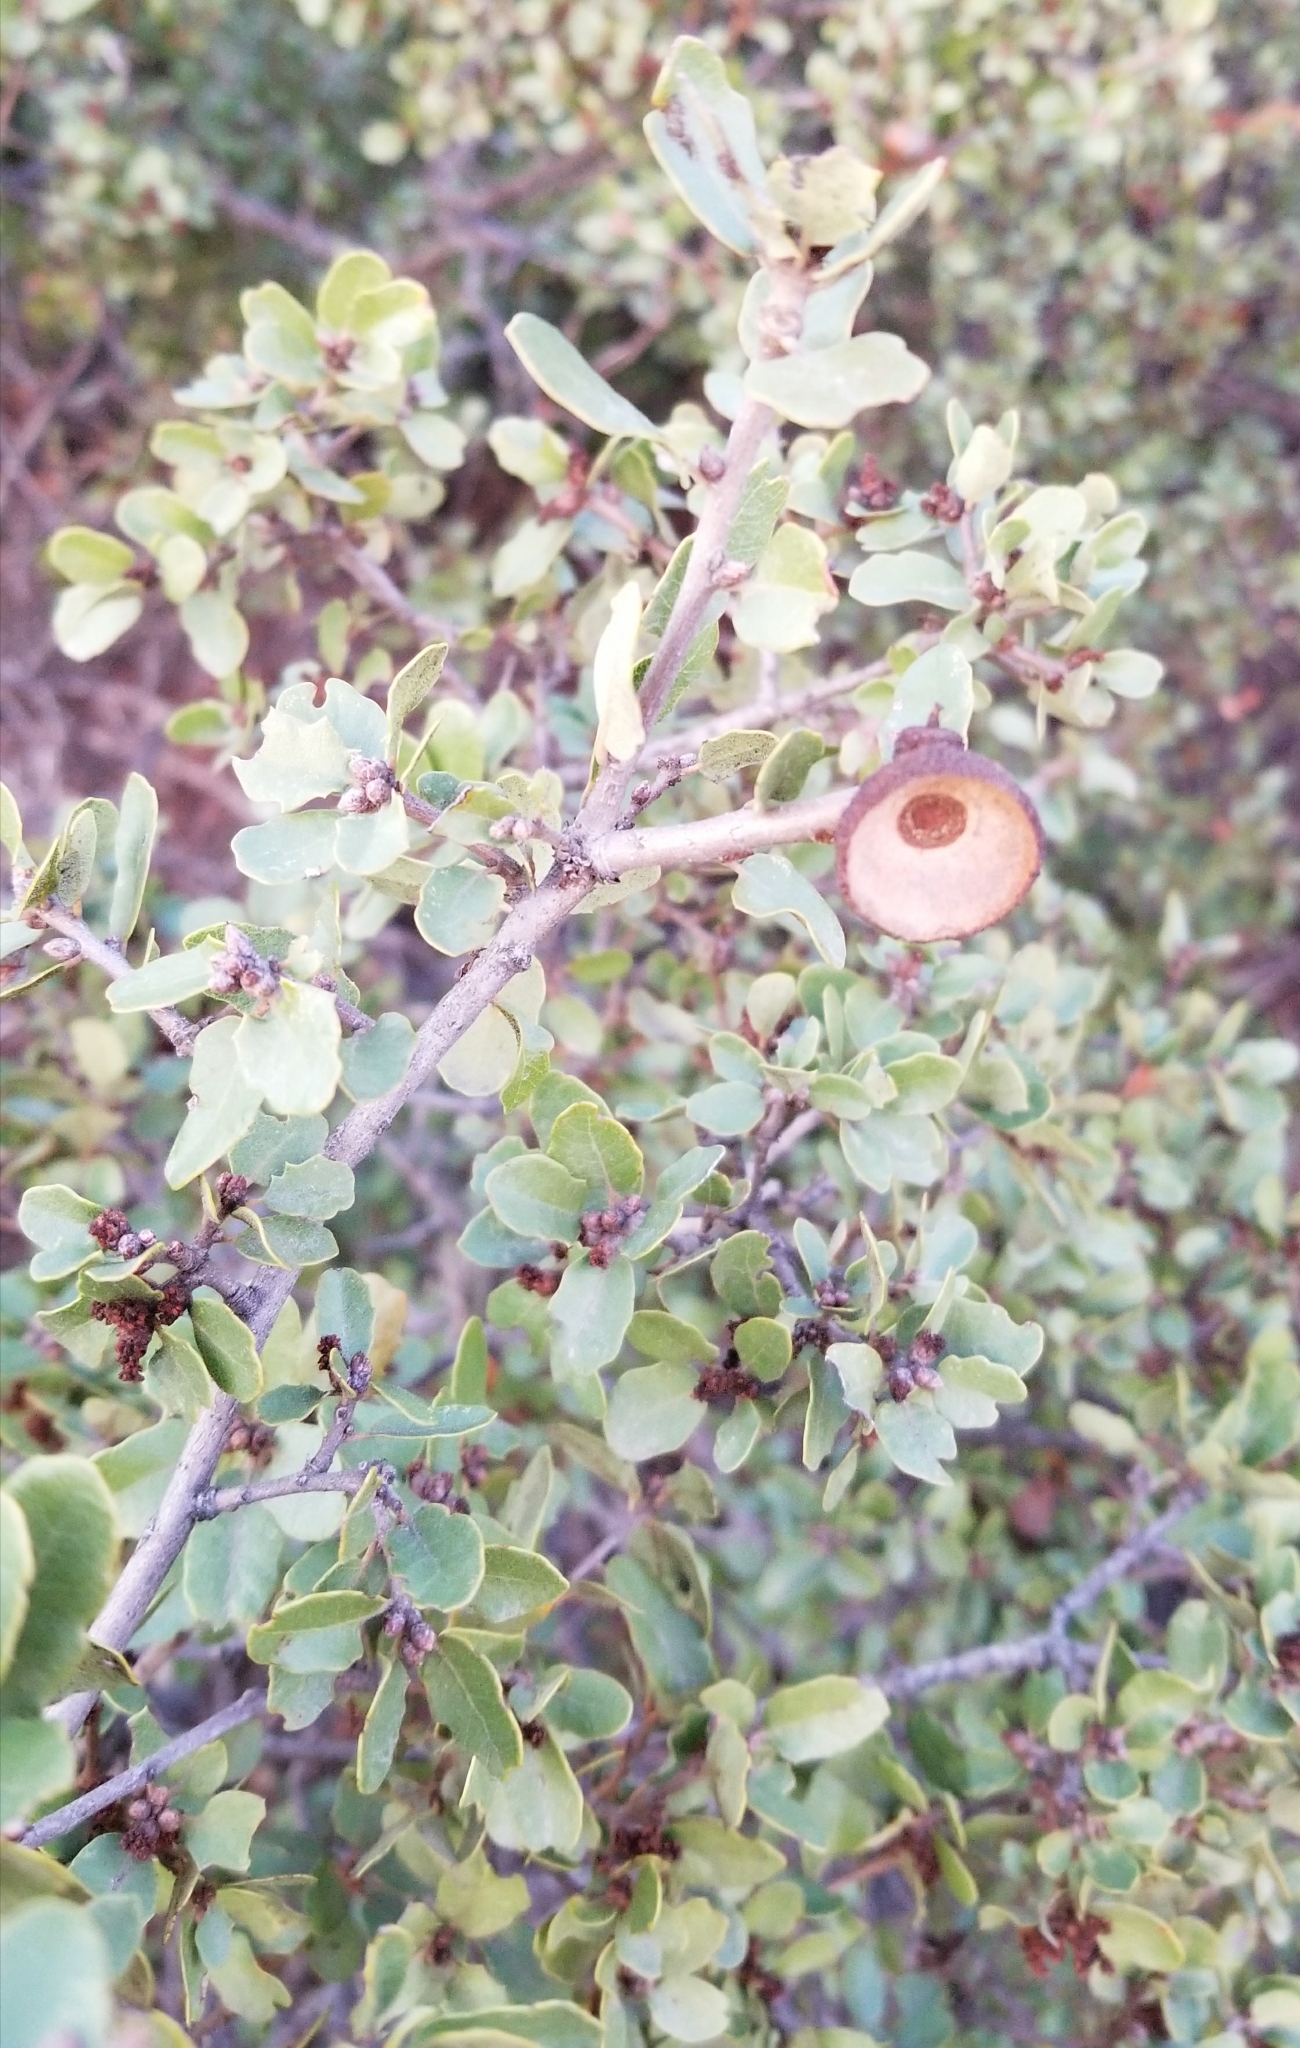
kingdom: Plantae
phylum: Tracheophyta
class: Magnoliopsida
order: Fagales
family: Fagaceae
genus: Quercus
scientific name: Quercus berberidifolia
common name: California scrub oak
